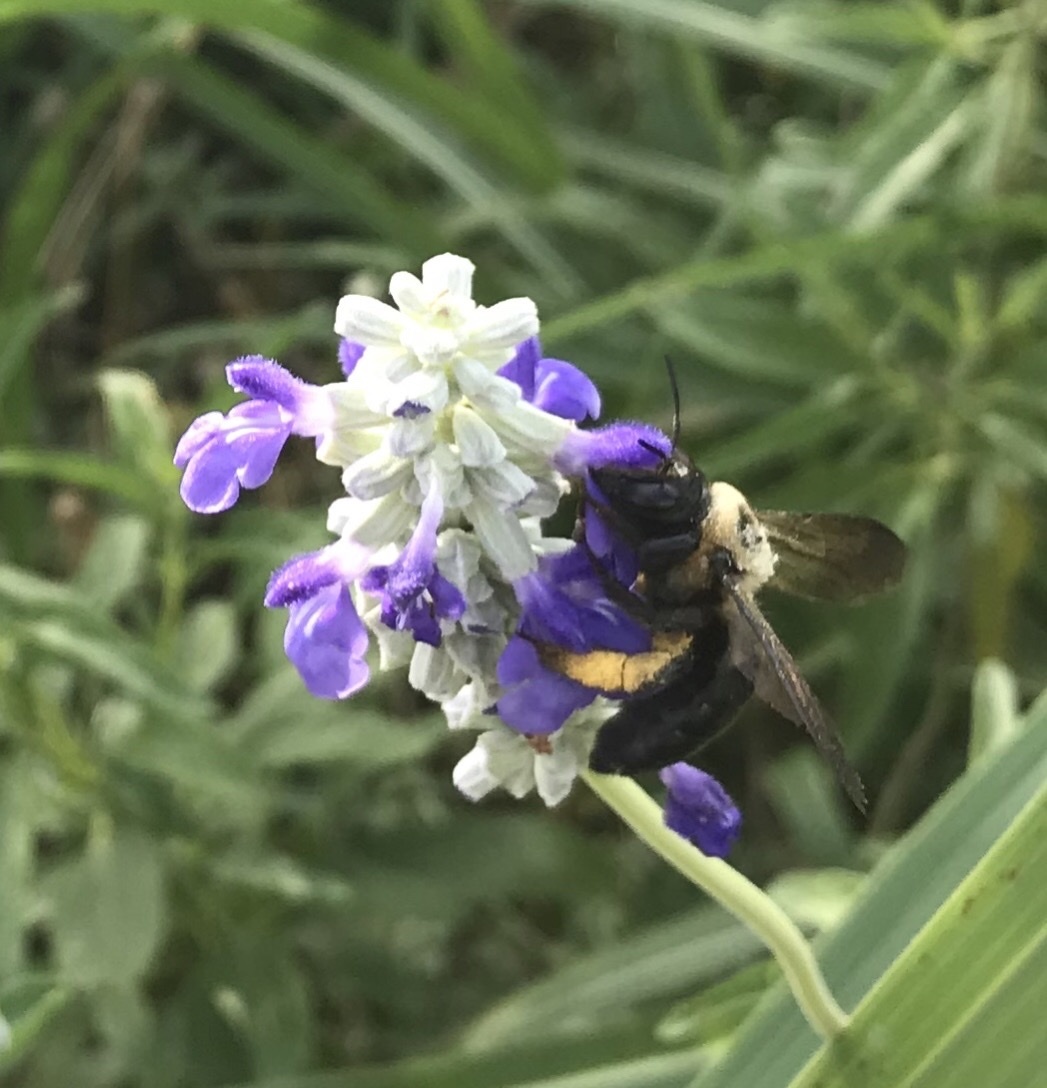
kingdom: Animalia
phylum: Arthropoda
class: Insecta
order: Hymenoptera
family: Apidae
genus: Xylocopa
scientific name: Xylocopa virginica
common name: Carpenter bee
